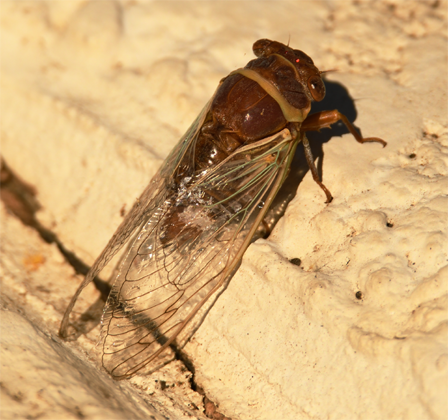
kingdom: Animalia
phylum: Arthropoda
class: Insecta
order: Hemiptera
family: Cicadidae
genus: Diceroprocta
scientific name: Diceroprocta apache
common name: Desert cicada
